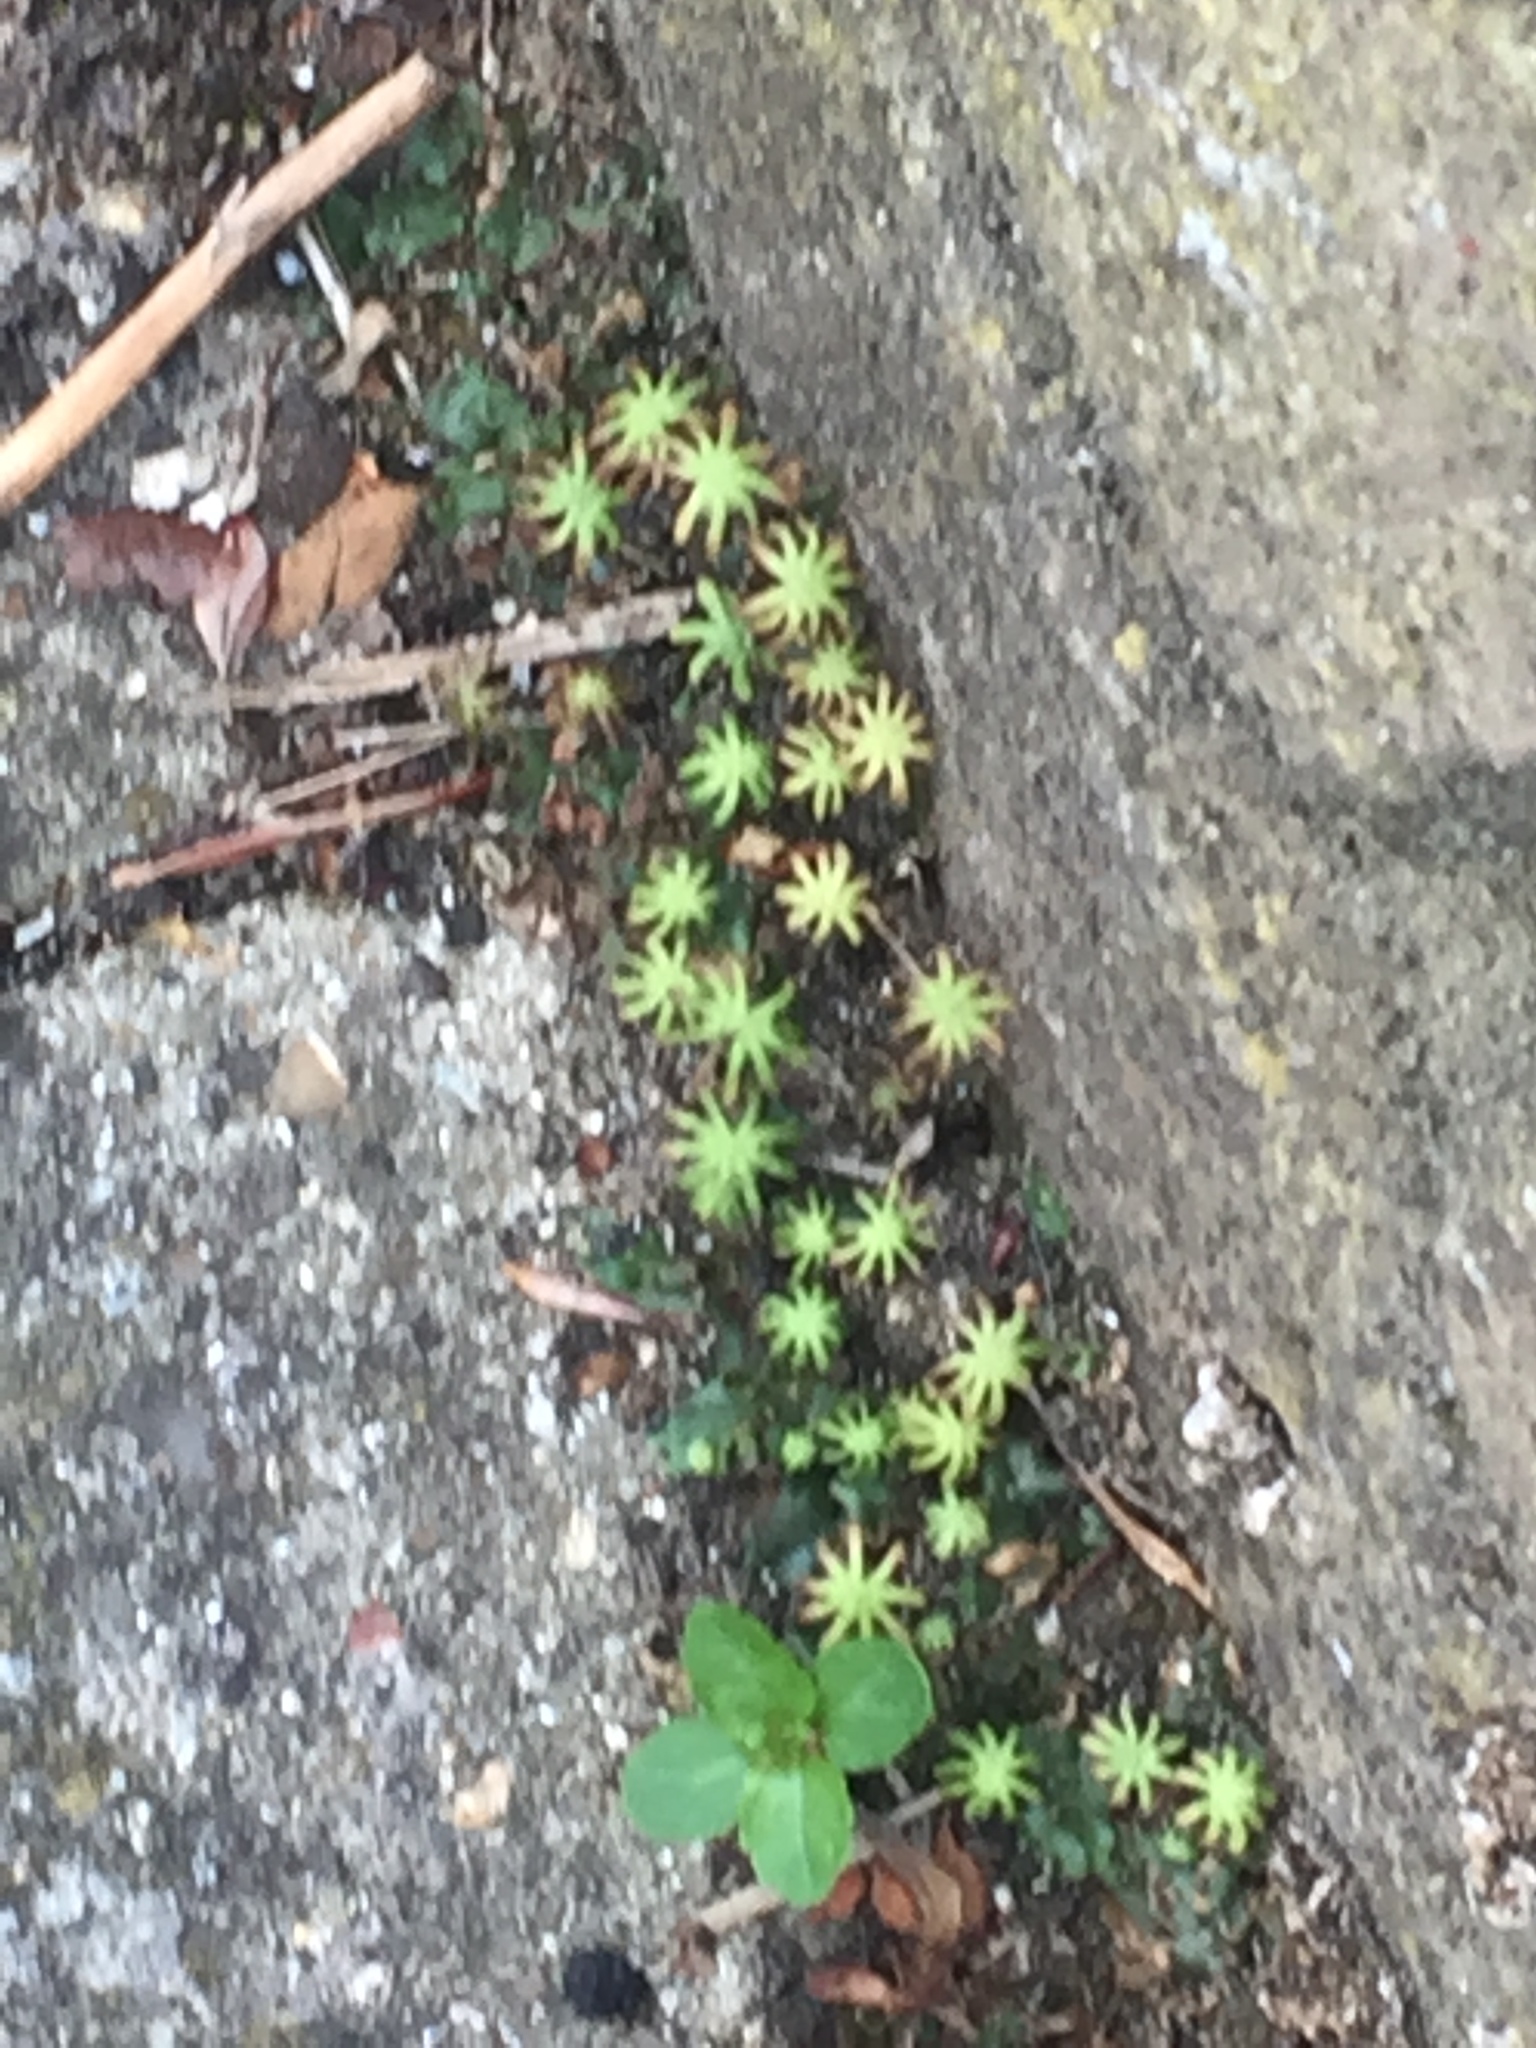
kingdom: Plantae
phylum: Marchantiophyta
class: Marchantiopsida
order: Marchantiales
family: Marchantiaceae
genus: Marchantia
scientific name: Marchantia polymorpha
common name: Common liverwort
